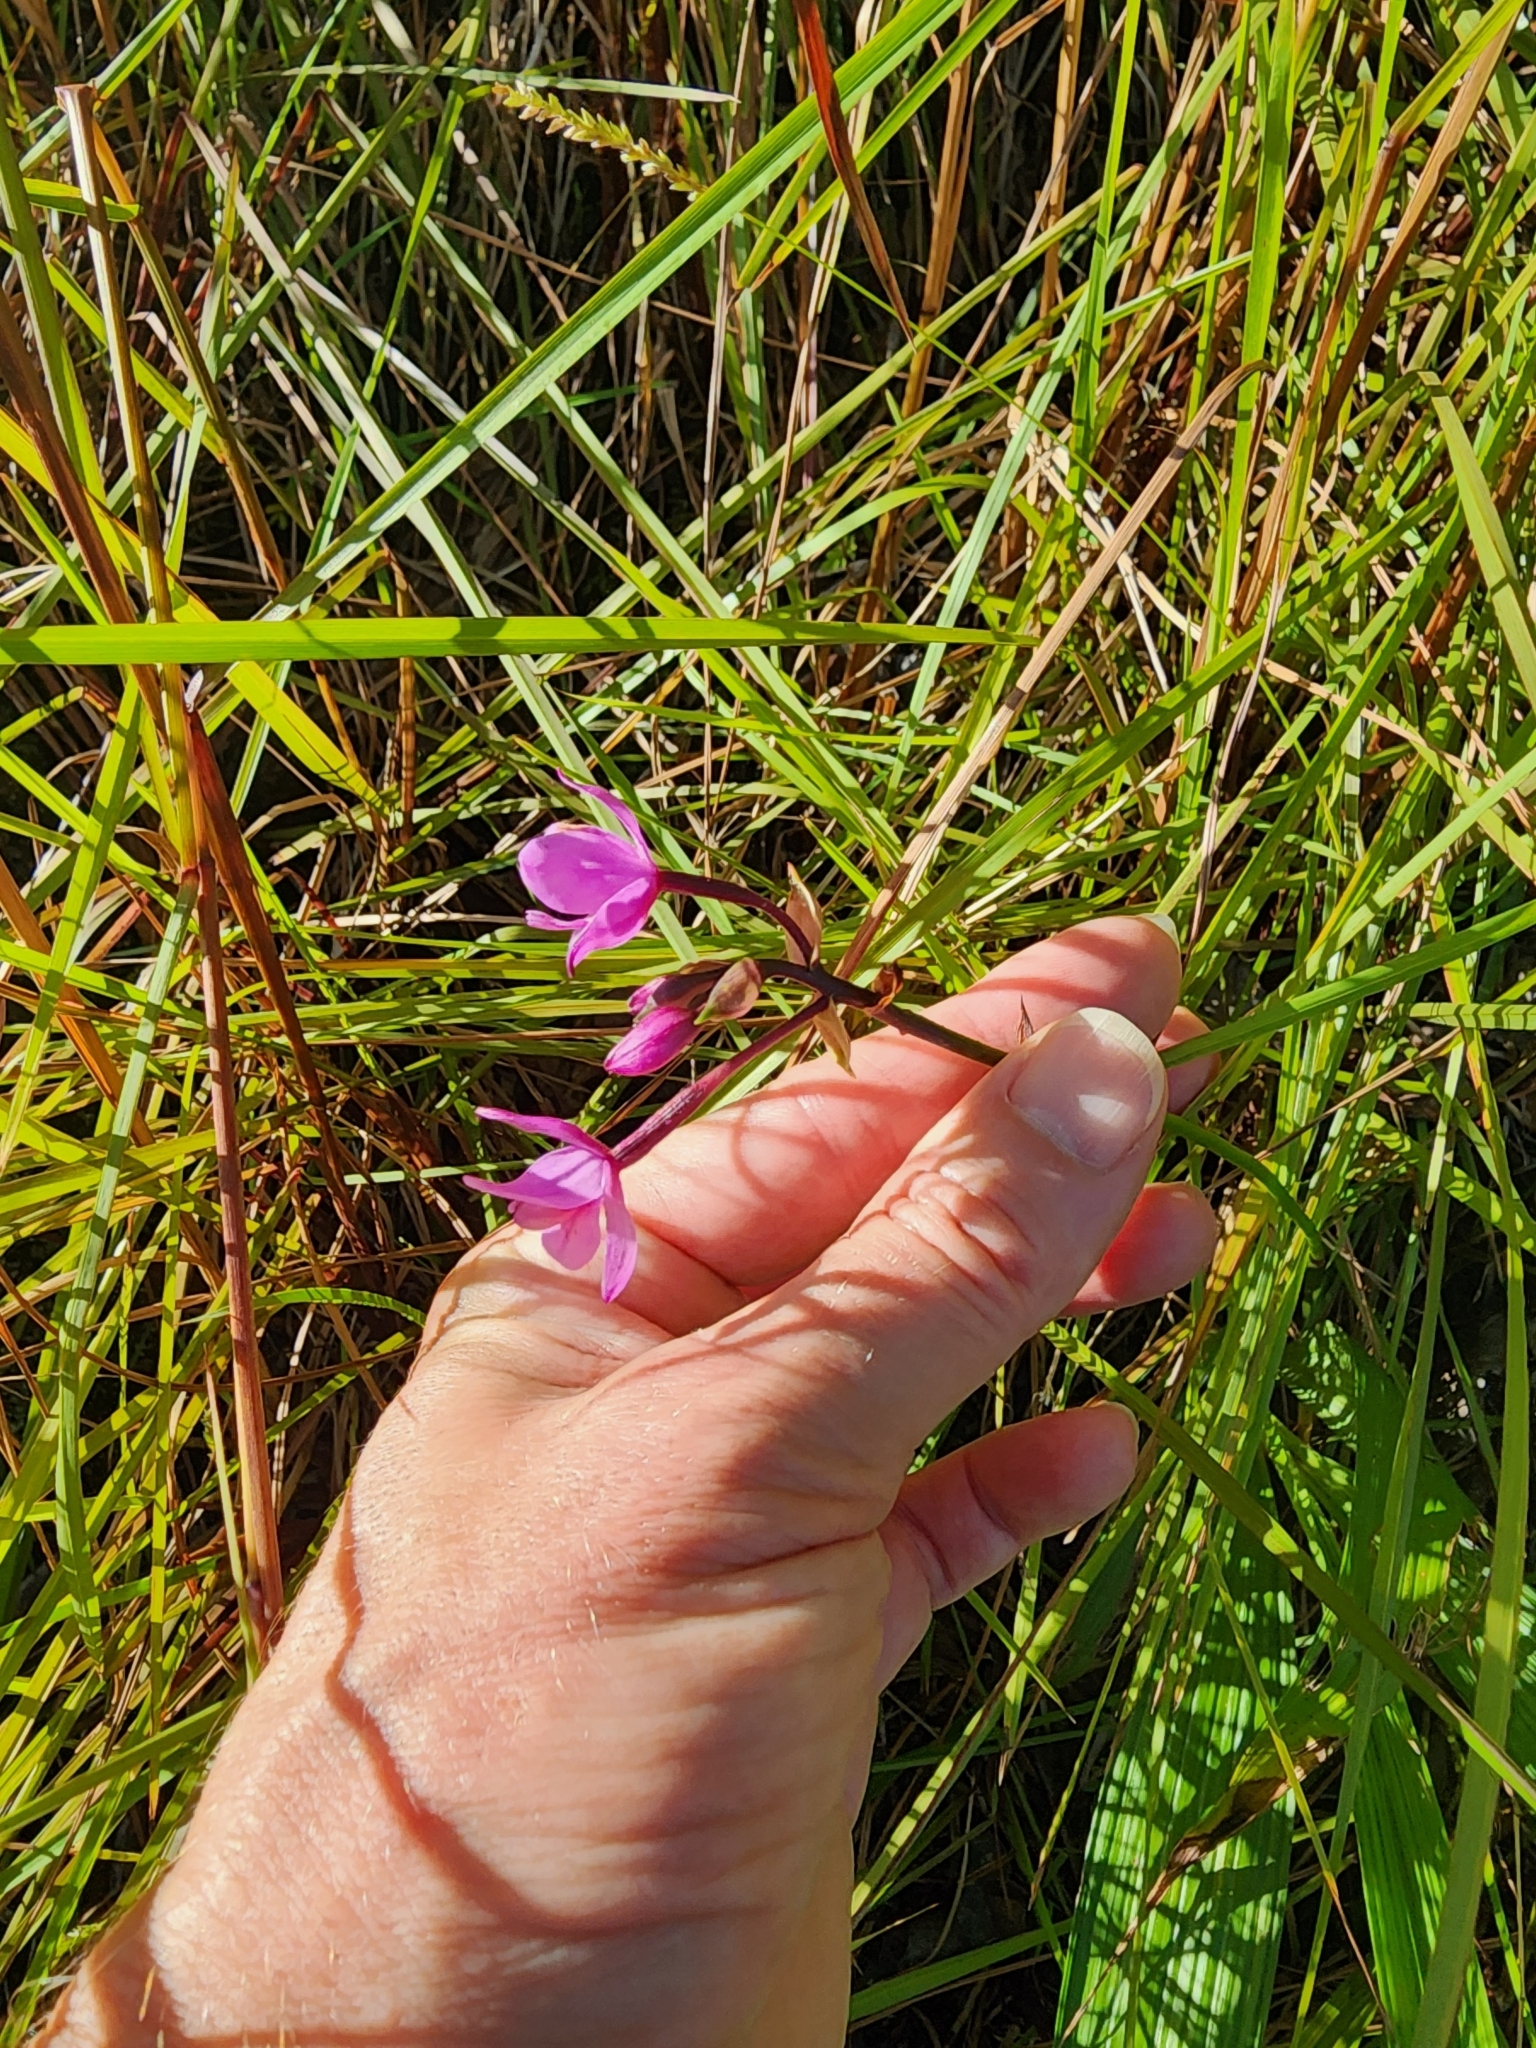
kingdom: Plantae
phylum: Tracheophyta
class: Liliopsida
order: Asparagales
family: Orchidaceae
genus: Spathoglottis
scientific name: Spathoglottis plicata
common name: Philippine ground orchid
